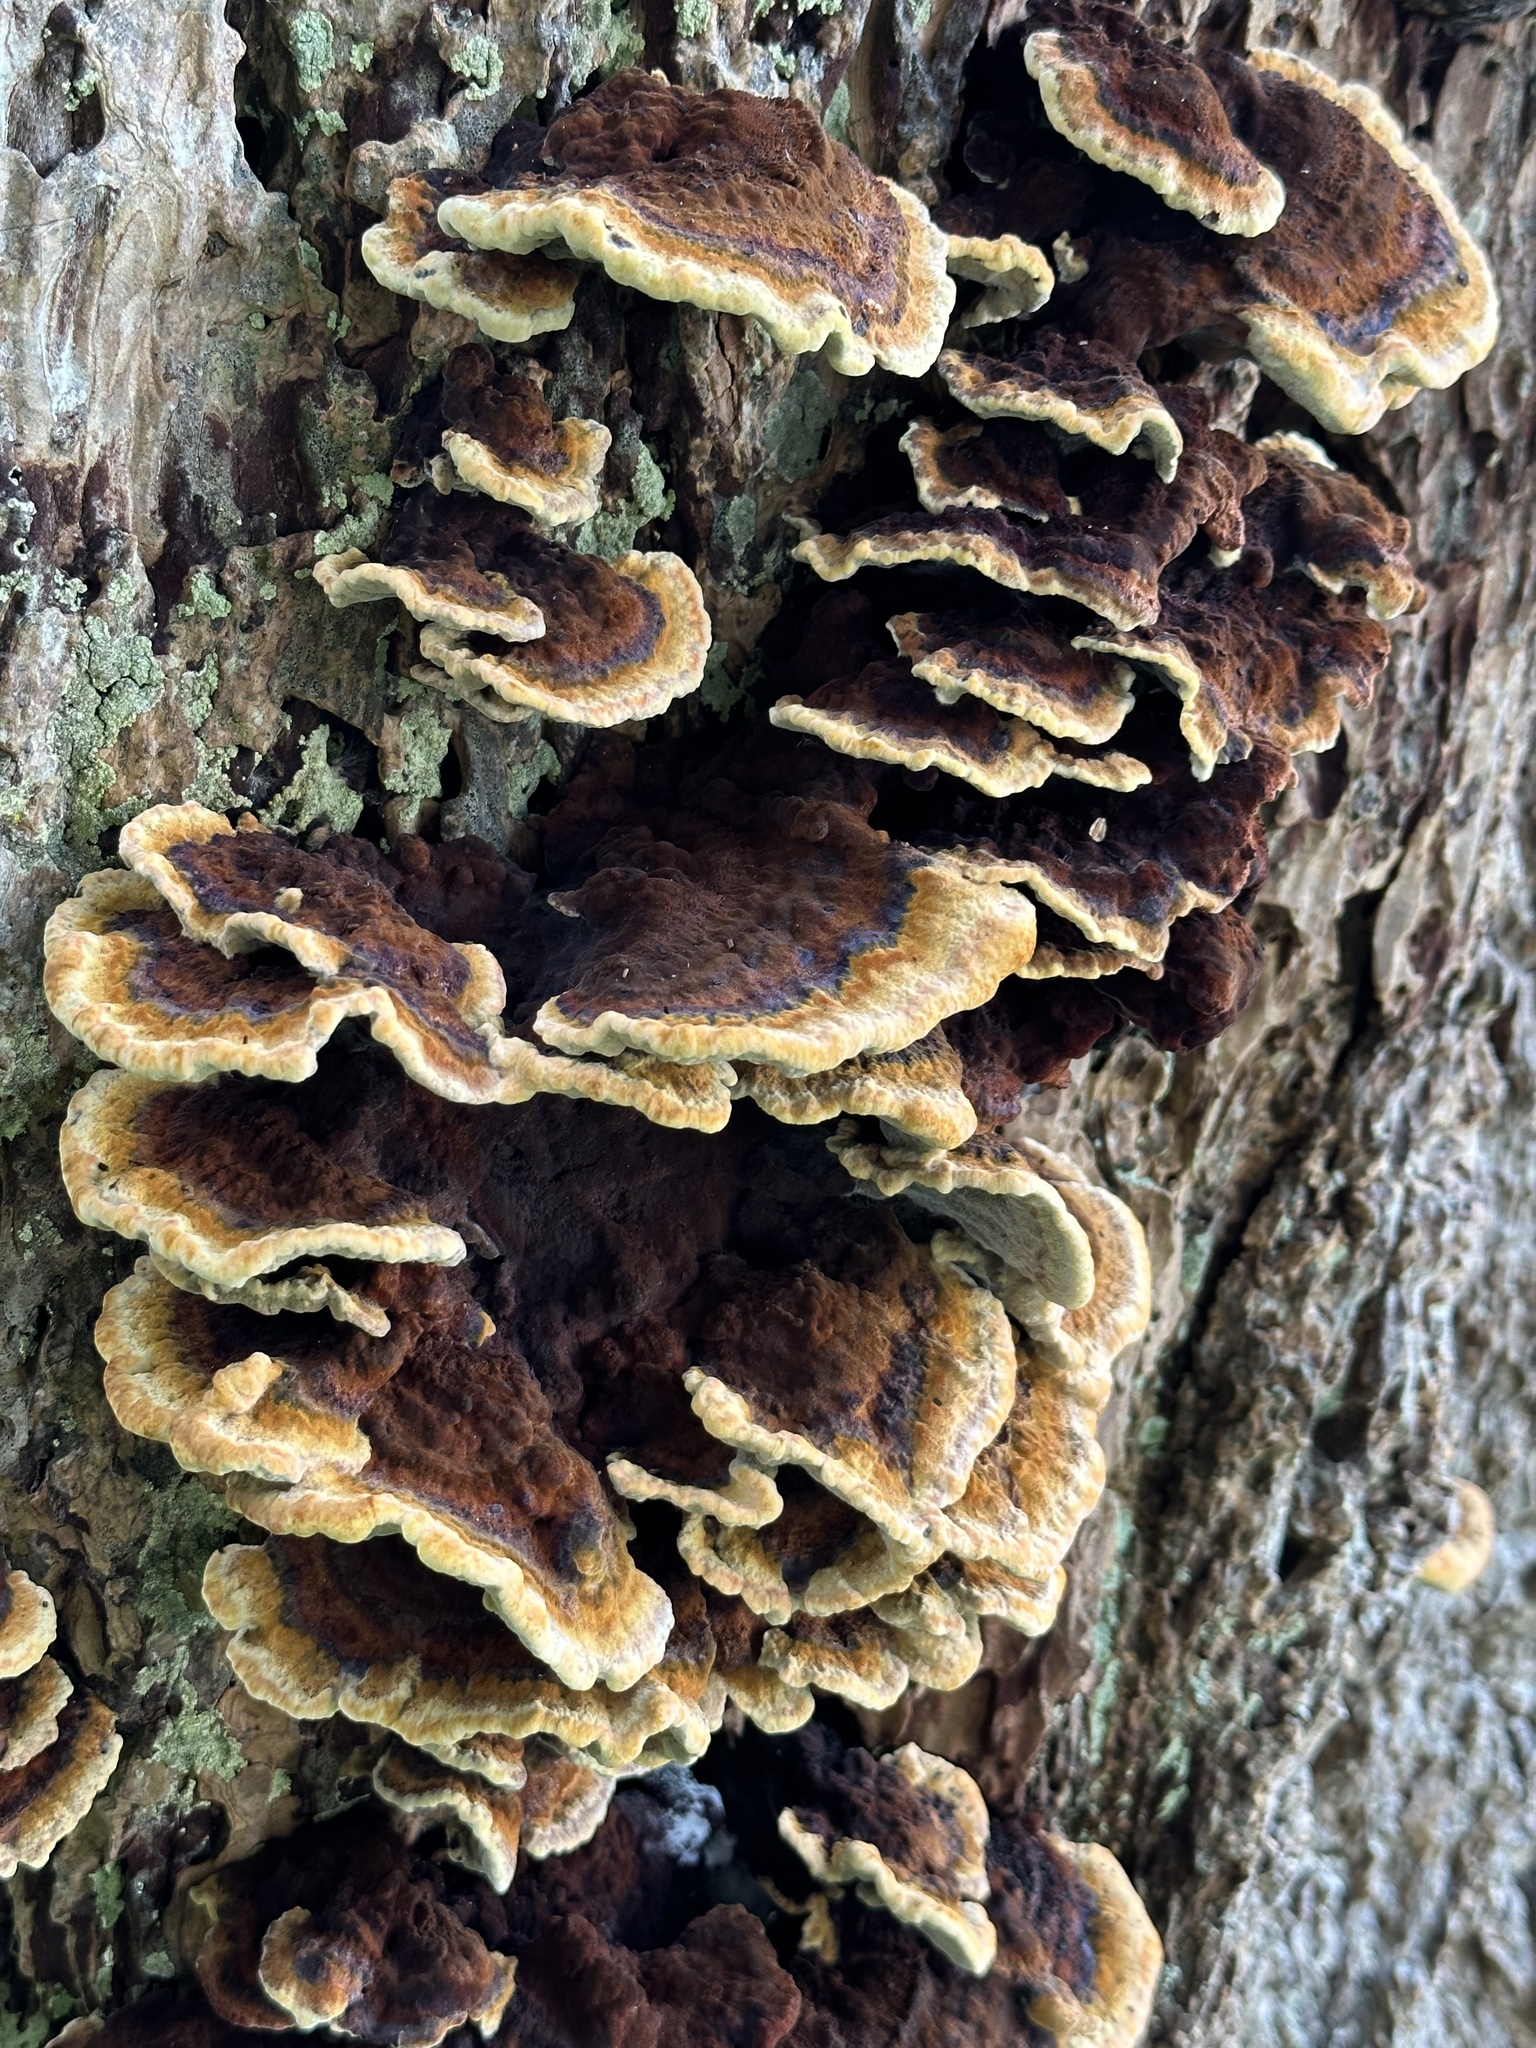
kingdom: Fungi
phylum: Basidiomycota
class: Agaricomycetes
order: Polyporales
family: Laetiporaceae
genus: Phaeolus
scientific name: Phaeolus schweinitzii
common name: Dyer's mazegill
